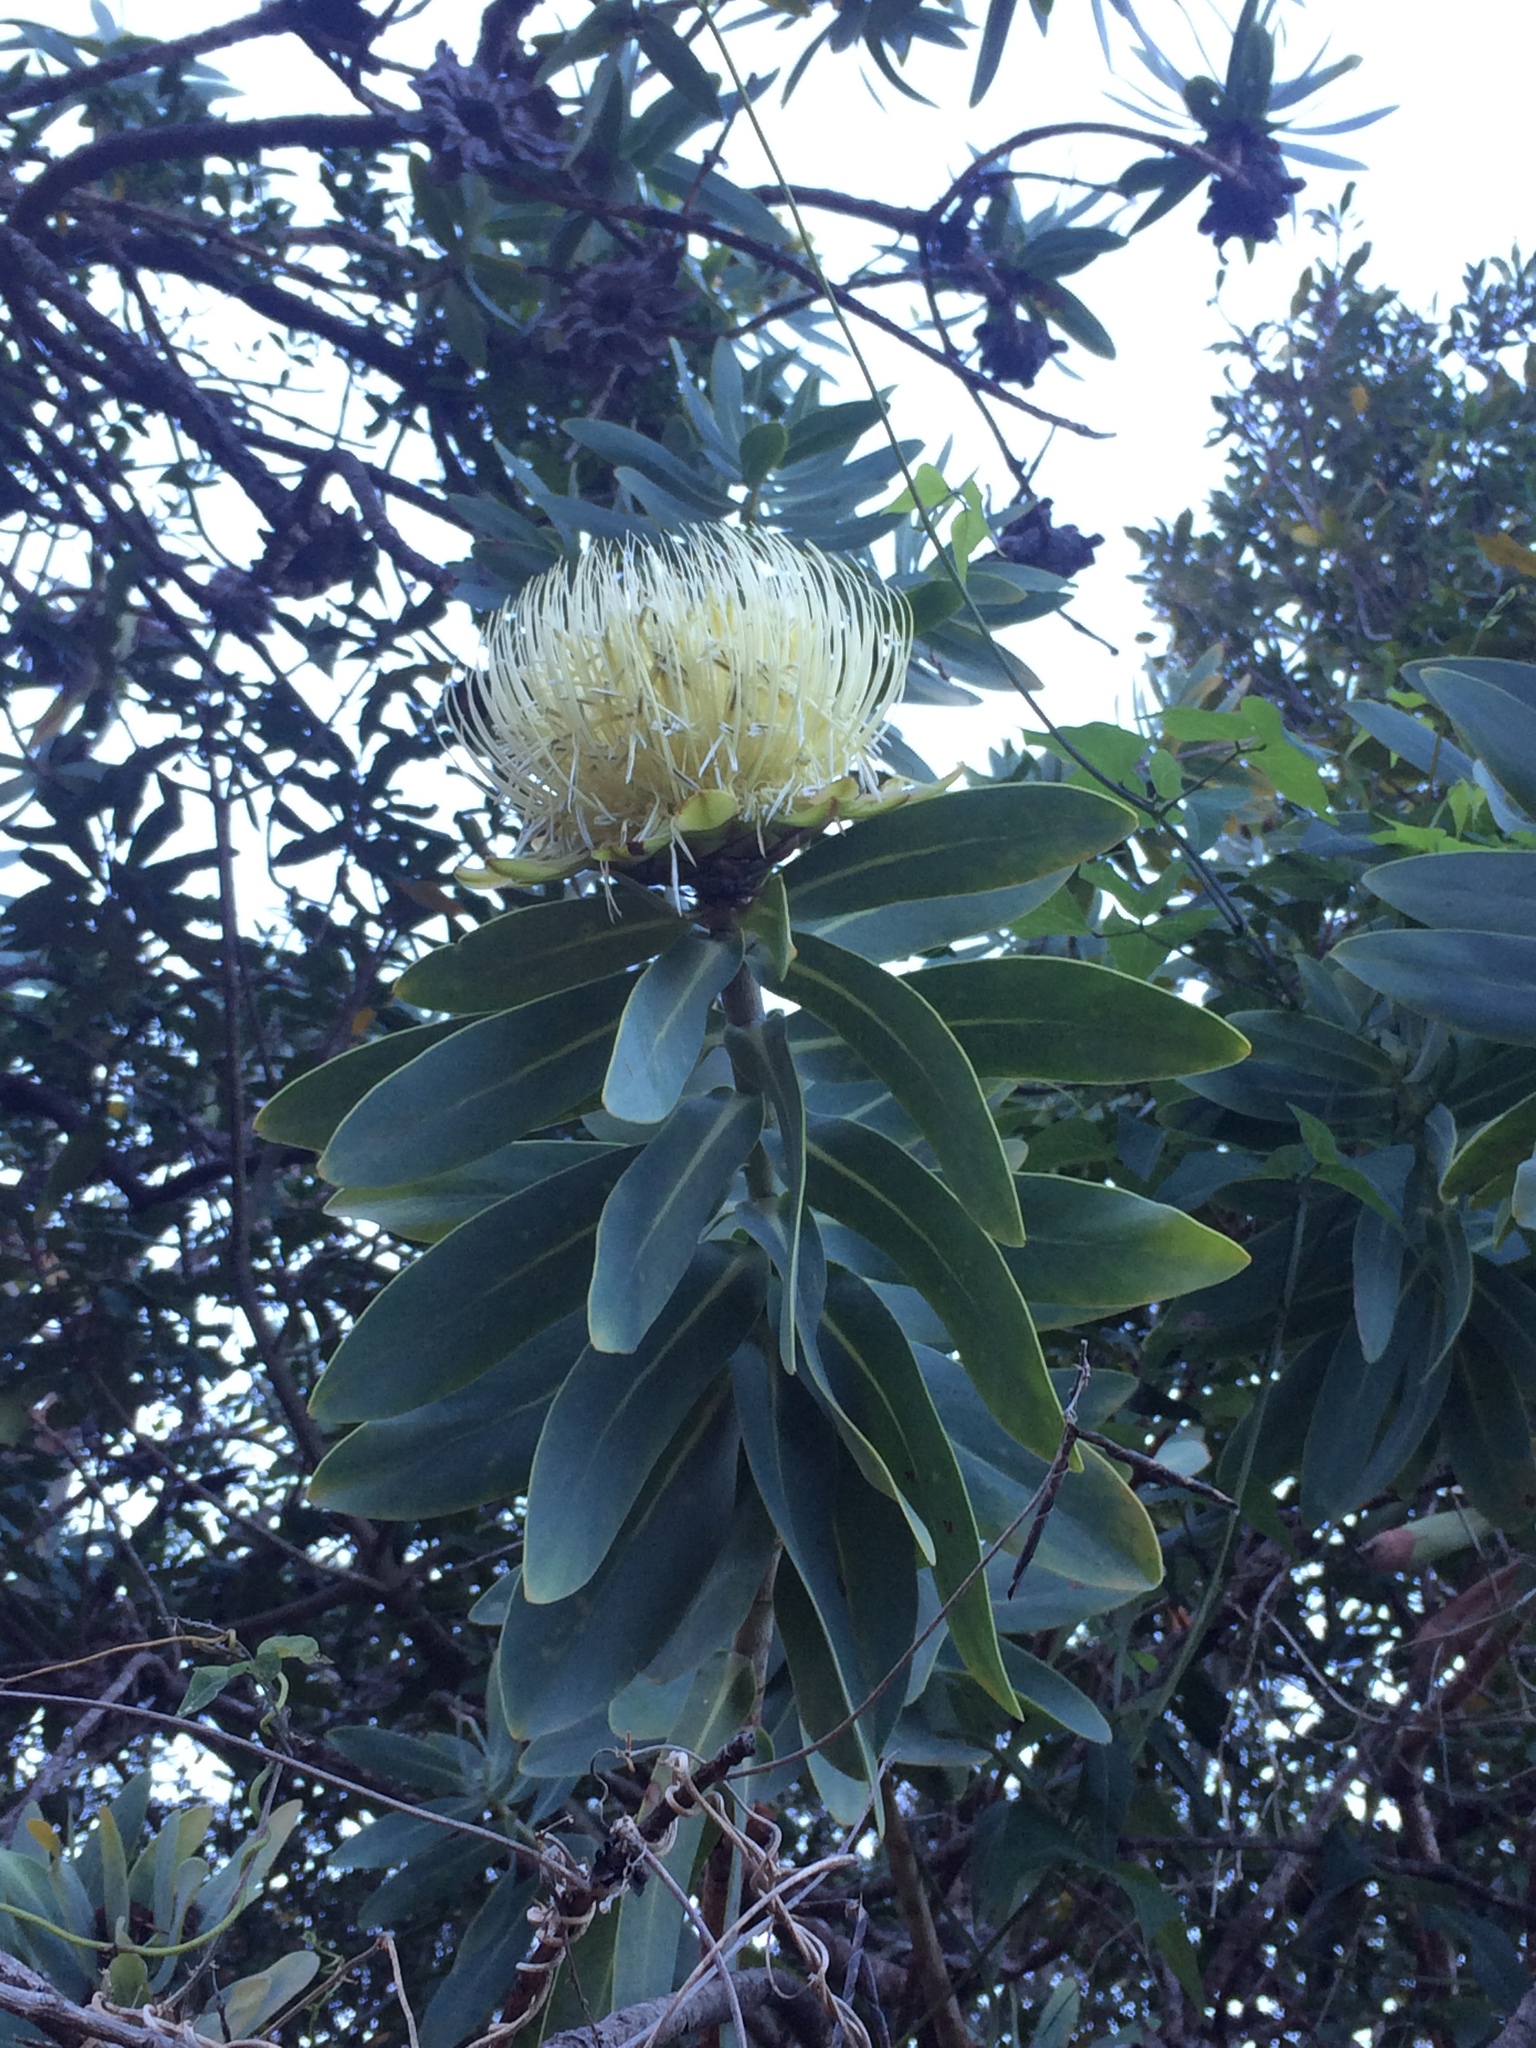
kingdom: Plantae
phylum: Tracheophyta
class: Magnoliopsida
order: Proteales
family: Proteaceae
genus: Protea
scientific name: Protea nitida
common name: Tree protea
